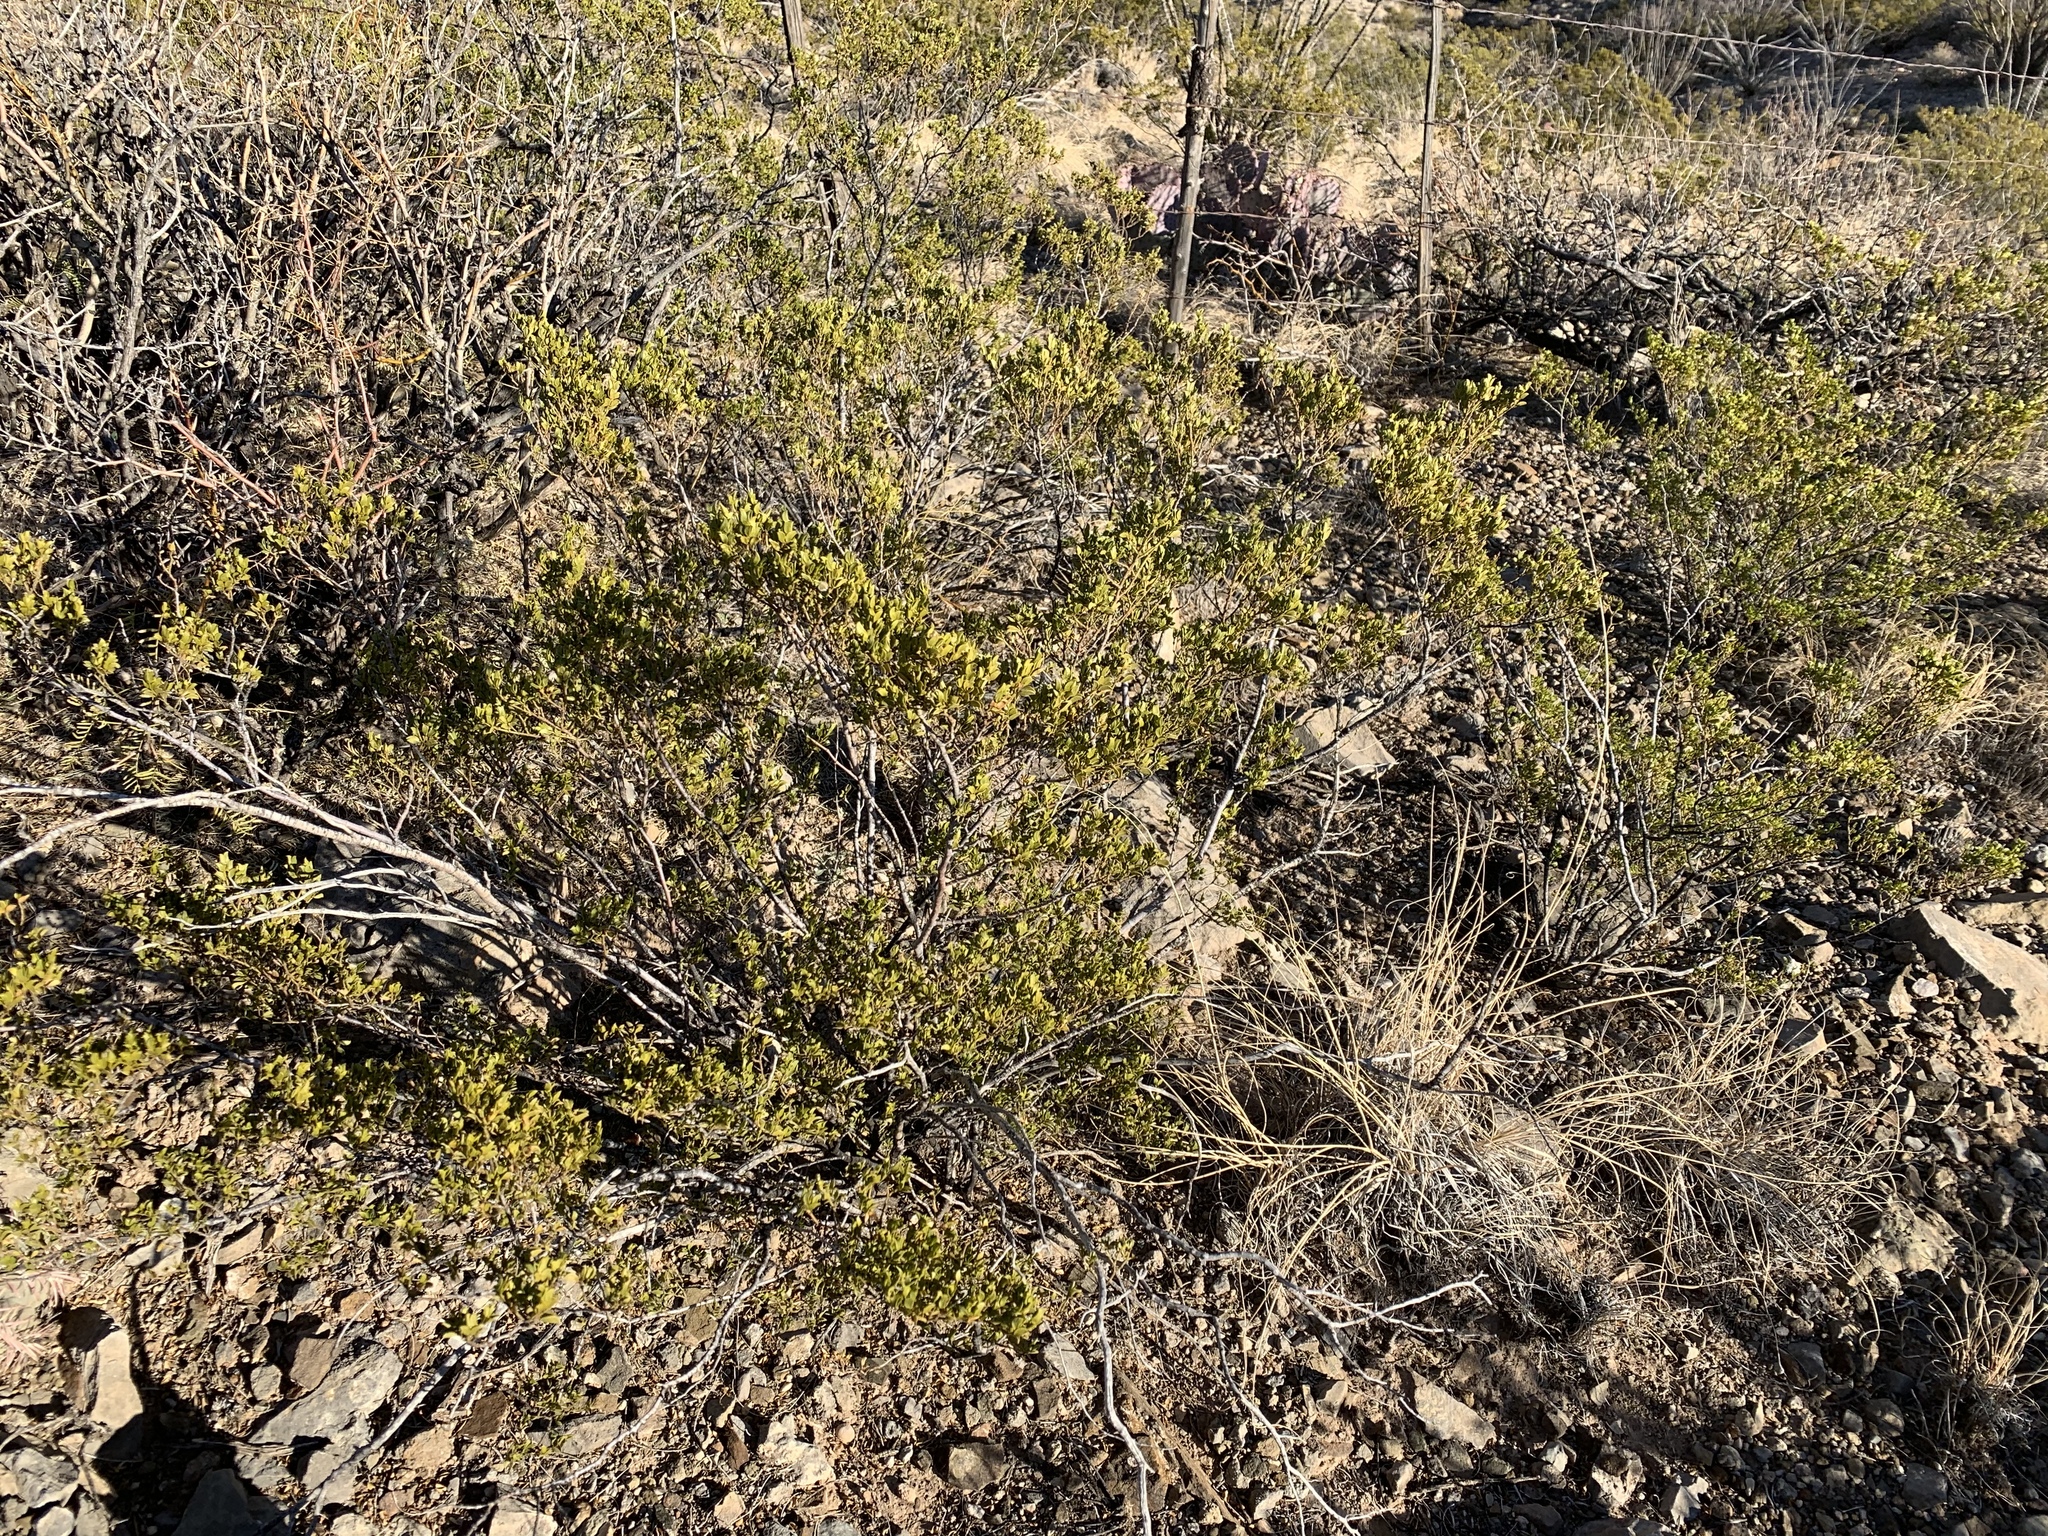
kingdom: Plantae
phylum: Tracheophyta
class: Magnoliopsida
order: Zygophyllales
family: Zygophyllaceae
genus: Larrea
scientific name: Larrea tridentata
